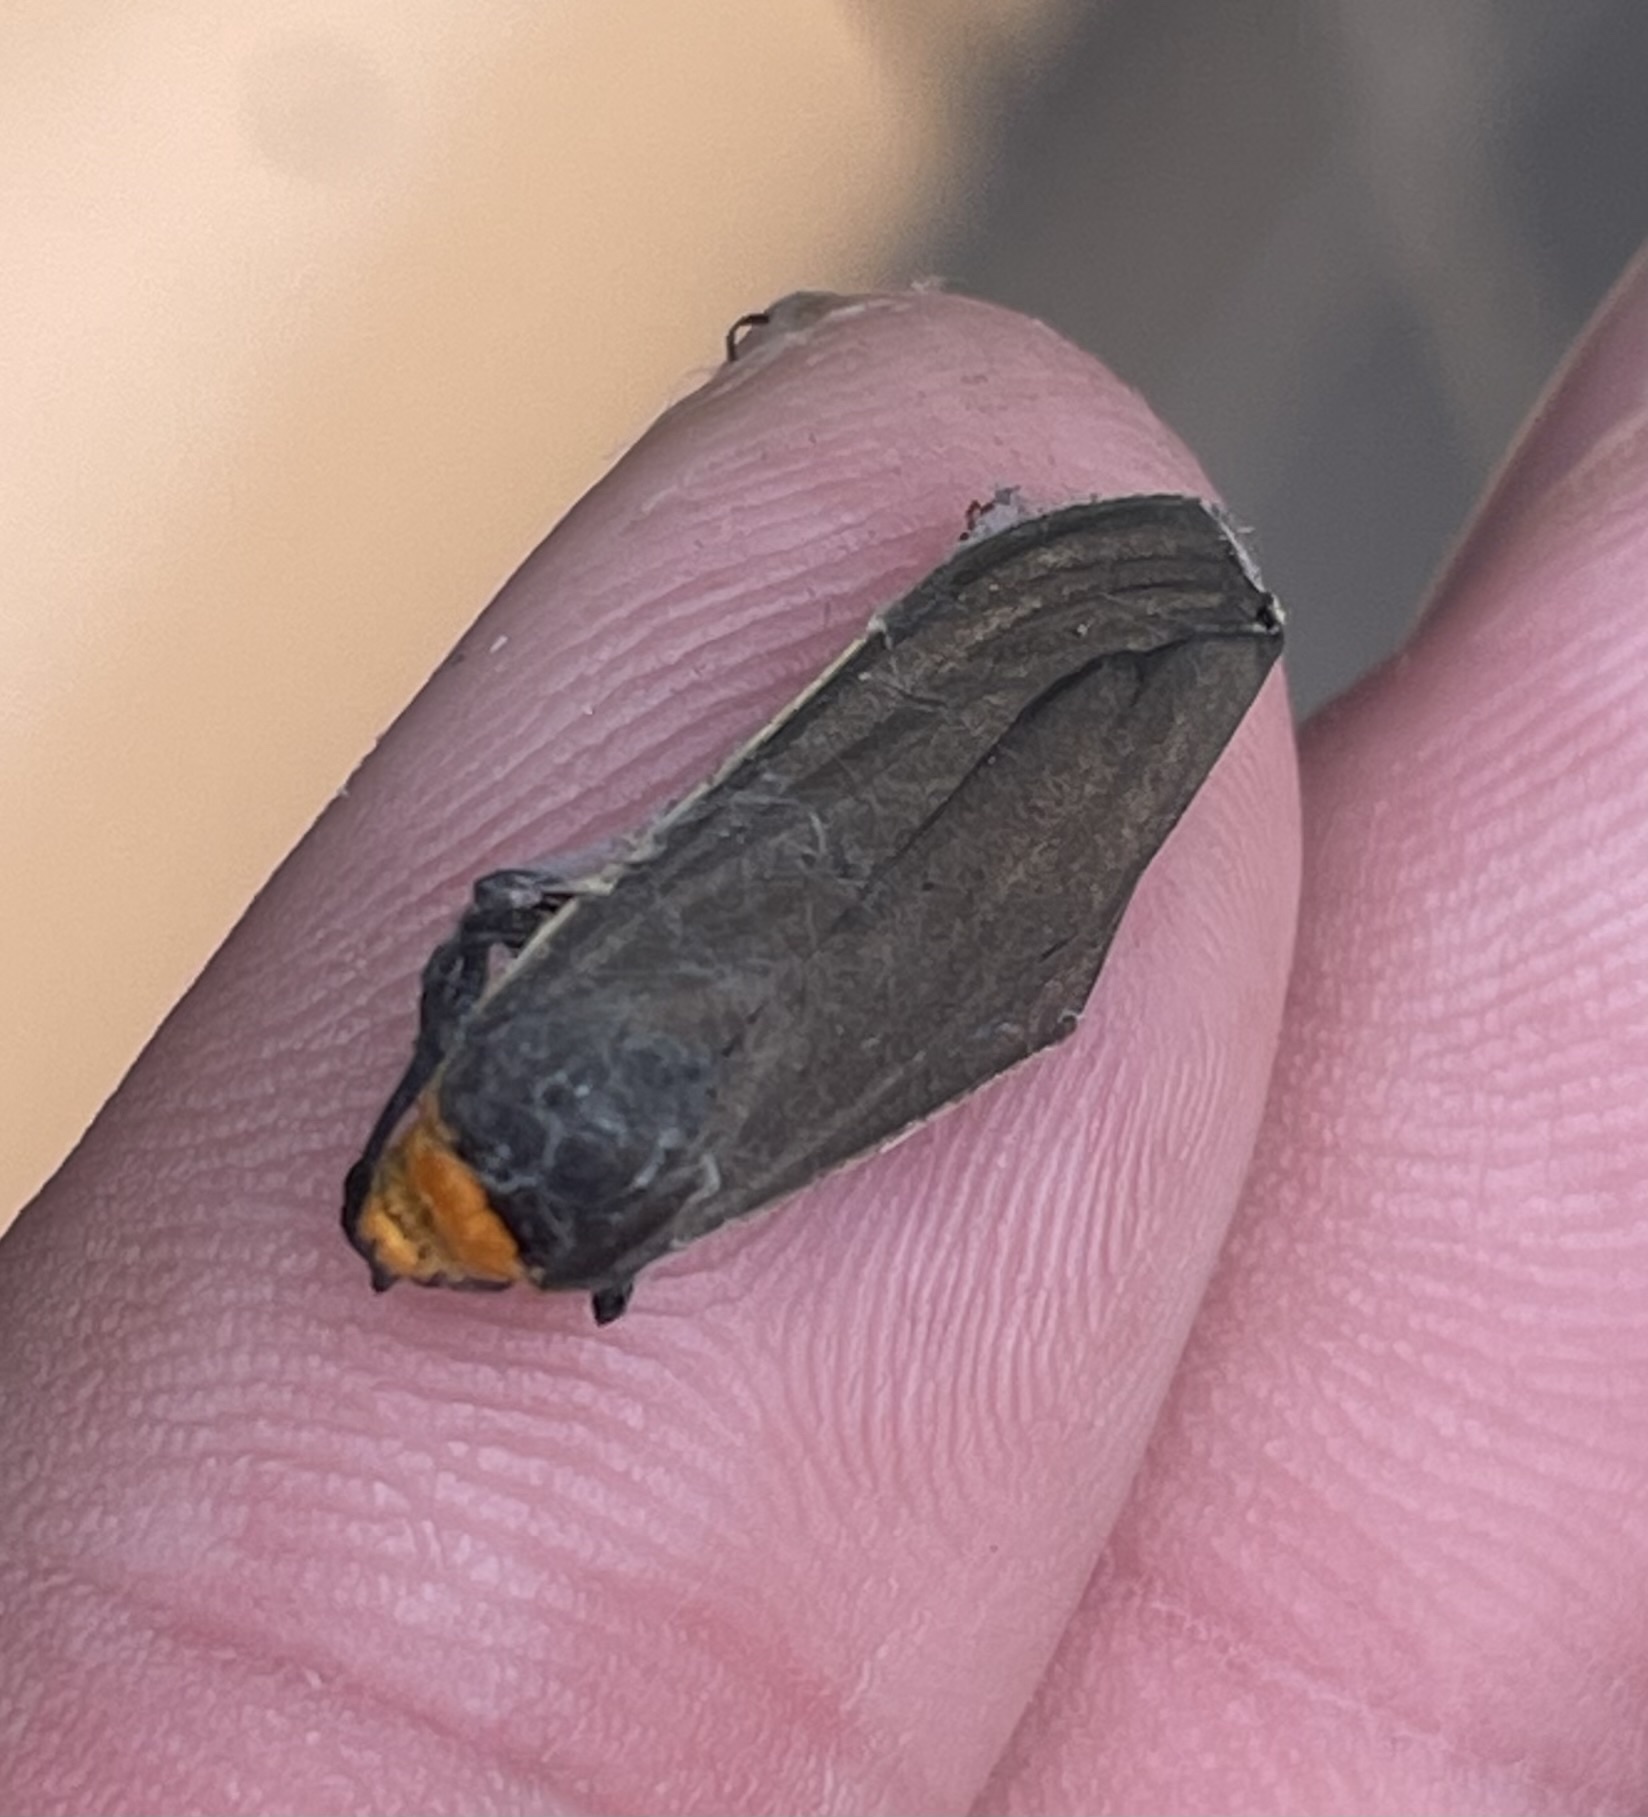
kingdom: Animalia
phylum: Arthropoda
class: Insecta
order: Lepidoptera
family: Erebidae
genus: Cisseps
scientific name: Cisseps fulvicollis
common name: Yellow-collared scape moth
